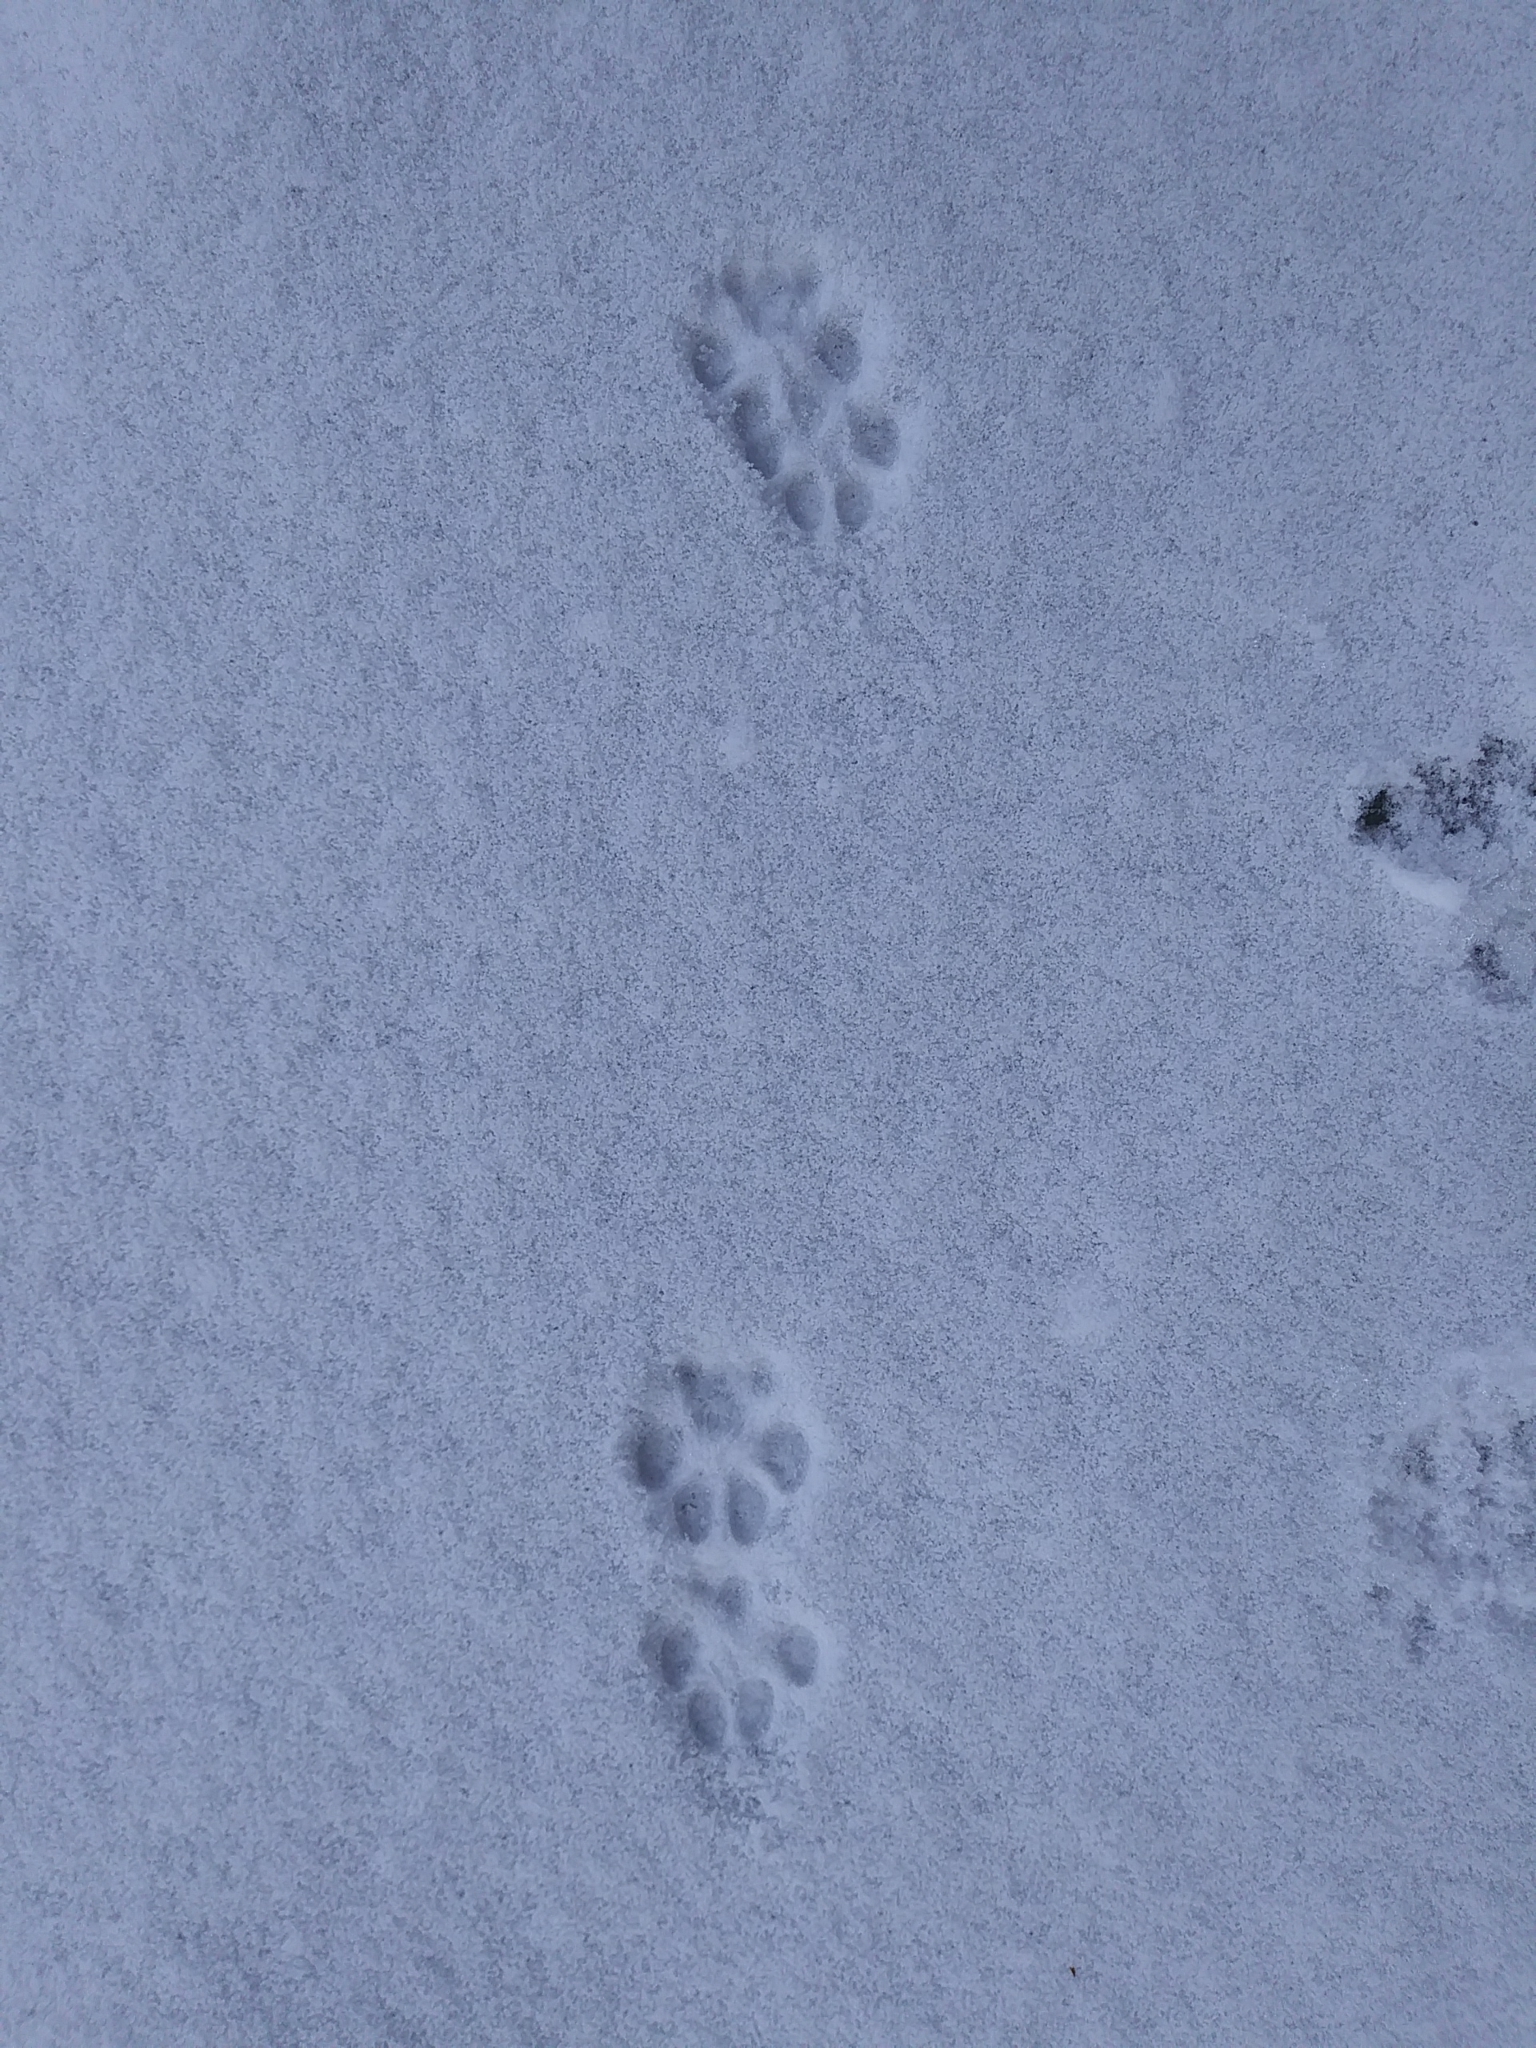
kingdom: Animalia
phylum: Chordata
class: Mammalia
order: Carnivora
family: Canidae
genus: Urocyon
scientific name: Urocyon cinereoargenteus
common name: Gray fox
